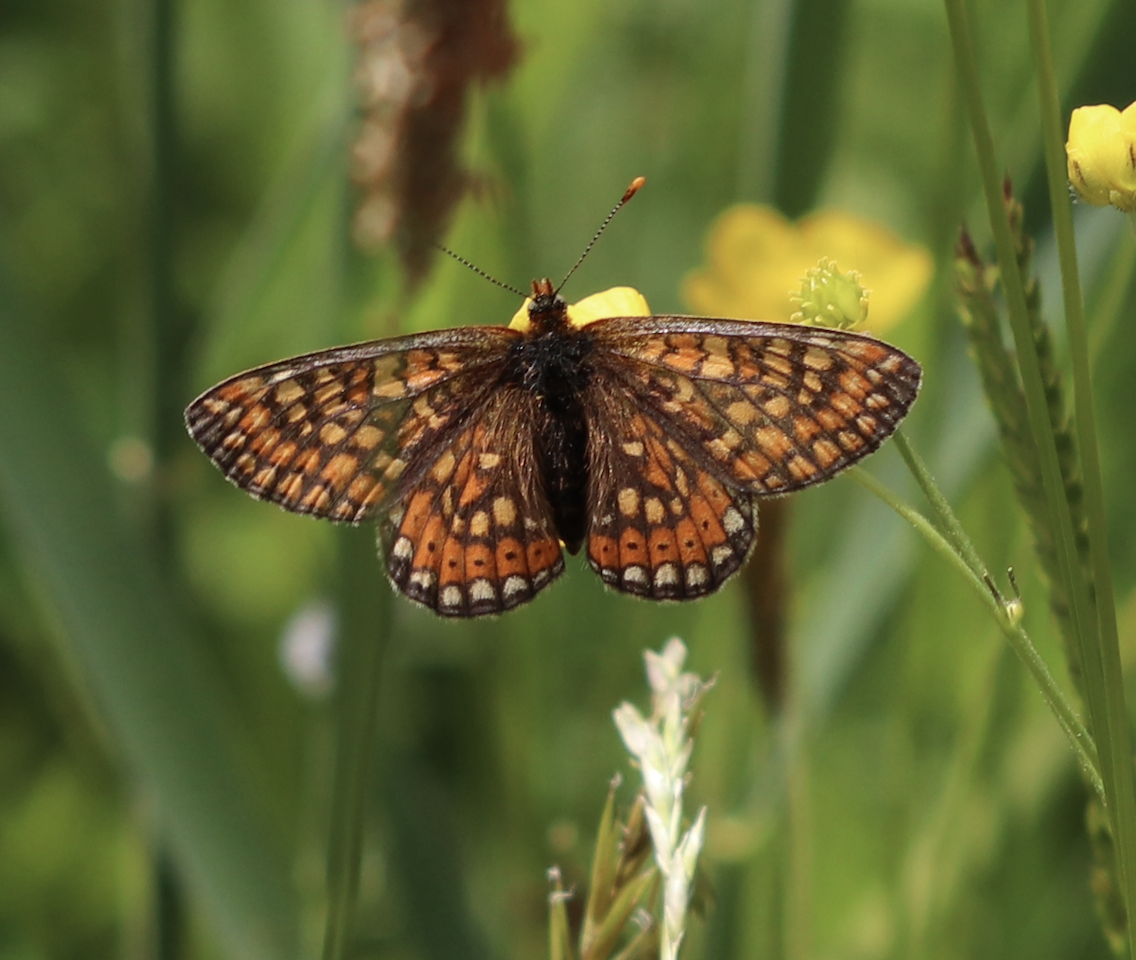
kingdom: Animalia
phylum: Arthropoda
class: Insecta
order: Lepidoptera
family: Nymphalidae
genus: Euphydryas
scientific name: Euphydryas aurinia
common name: Marsh fritillary
